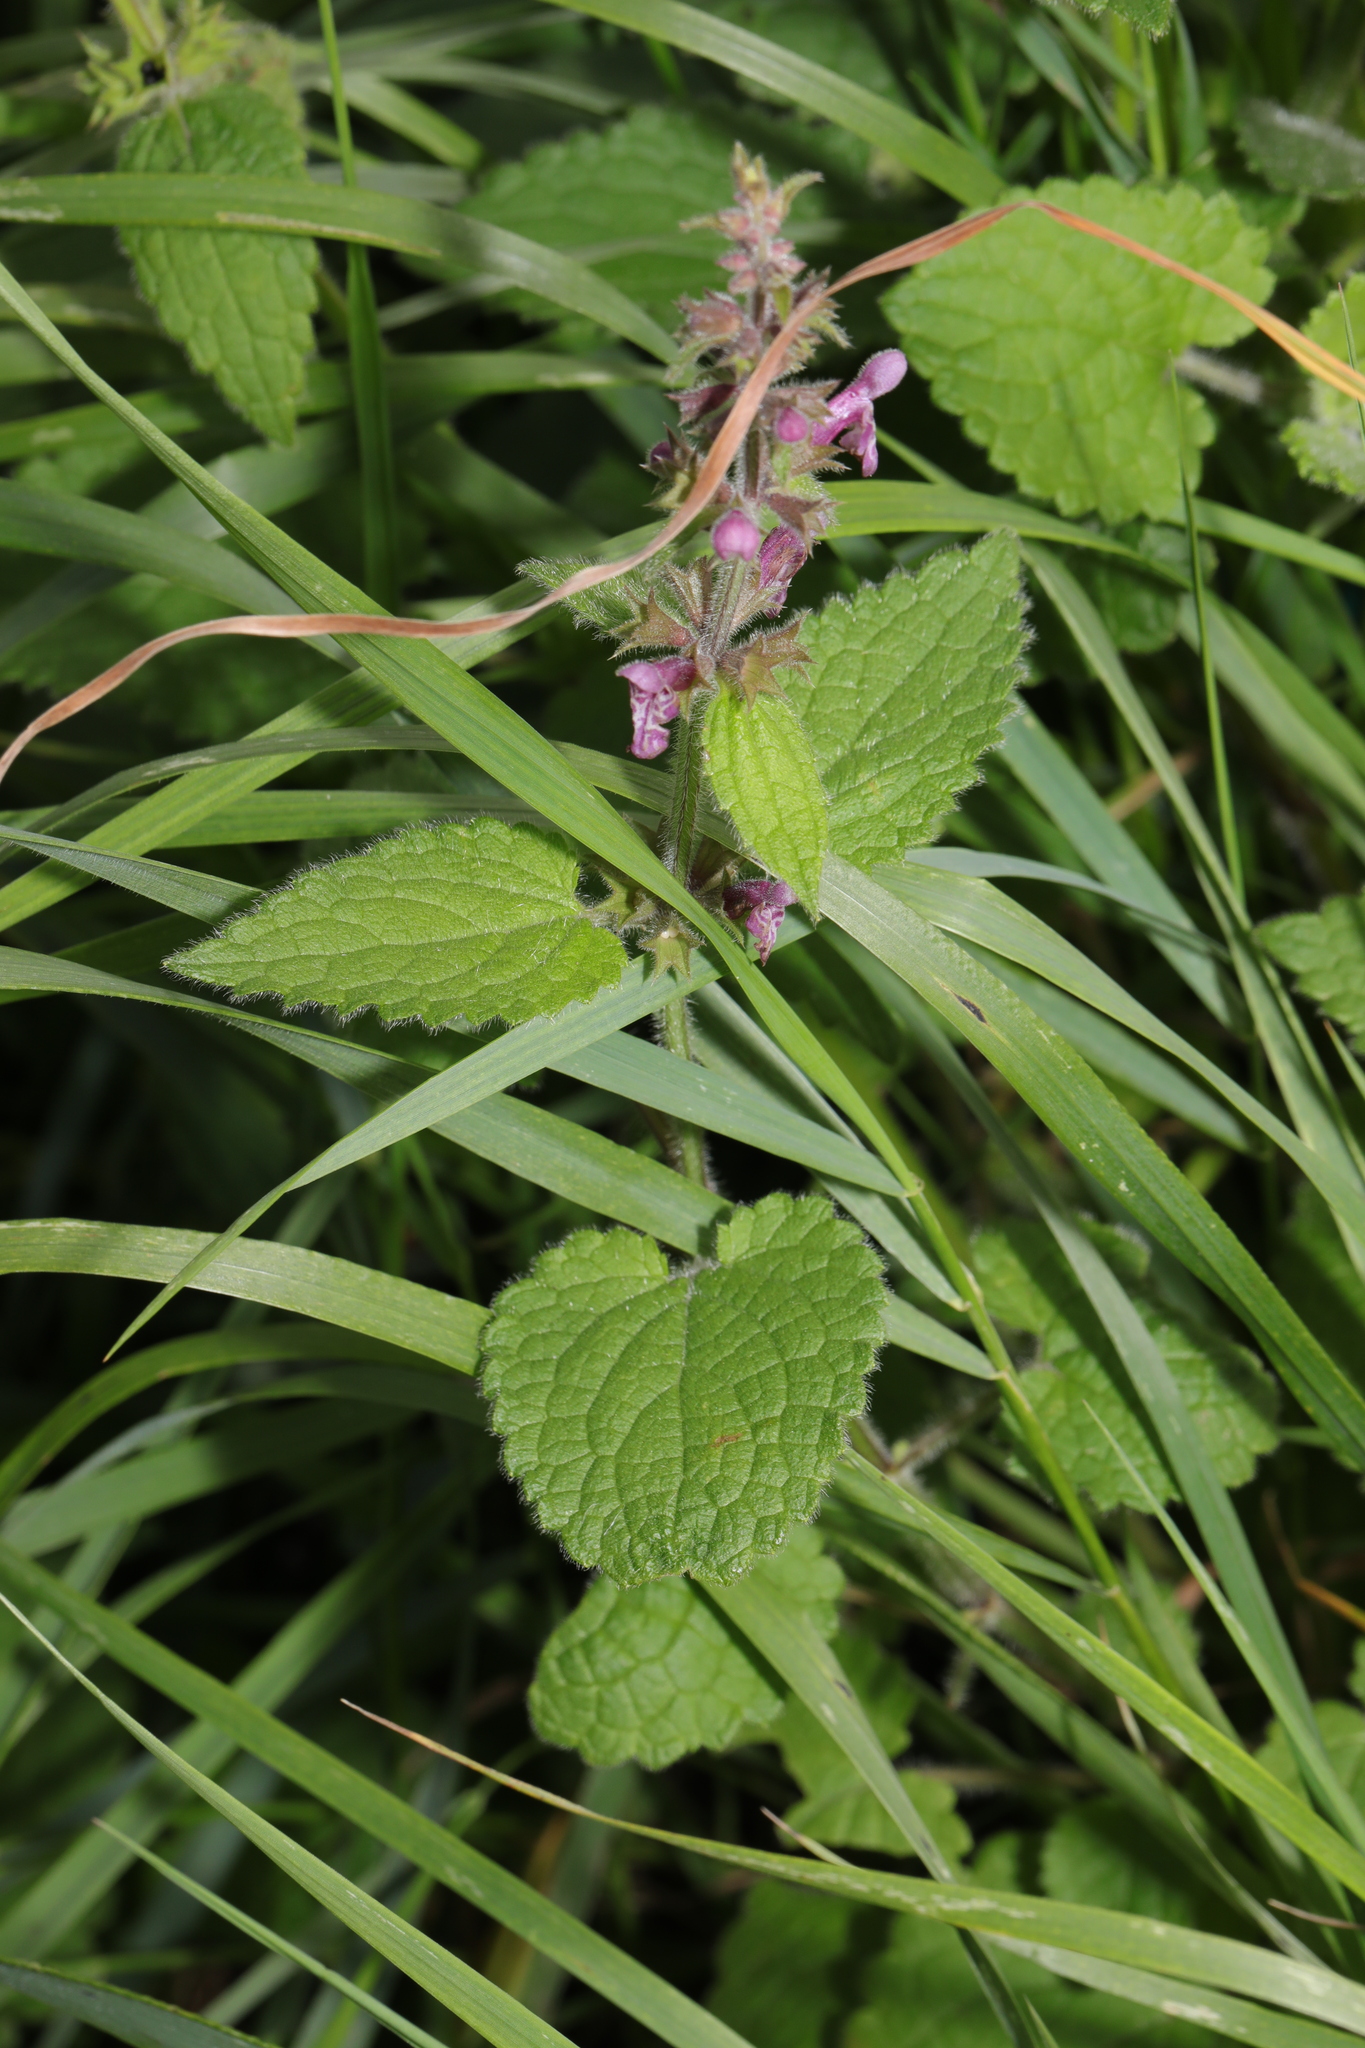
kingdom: Plantae
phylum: Tracheophyta
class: Magnoliopsida
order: Lamiales
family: Lamiaceae
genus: Stachys
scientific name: Stachys sylvatica
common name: Hedge woundwort
